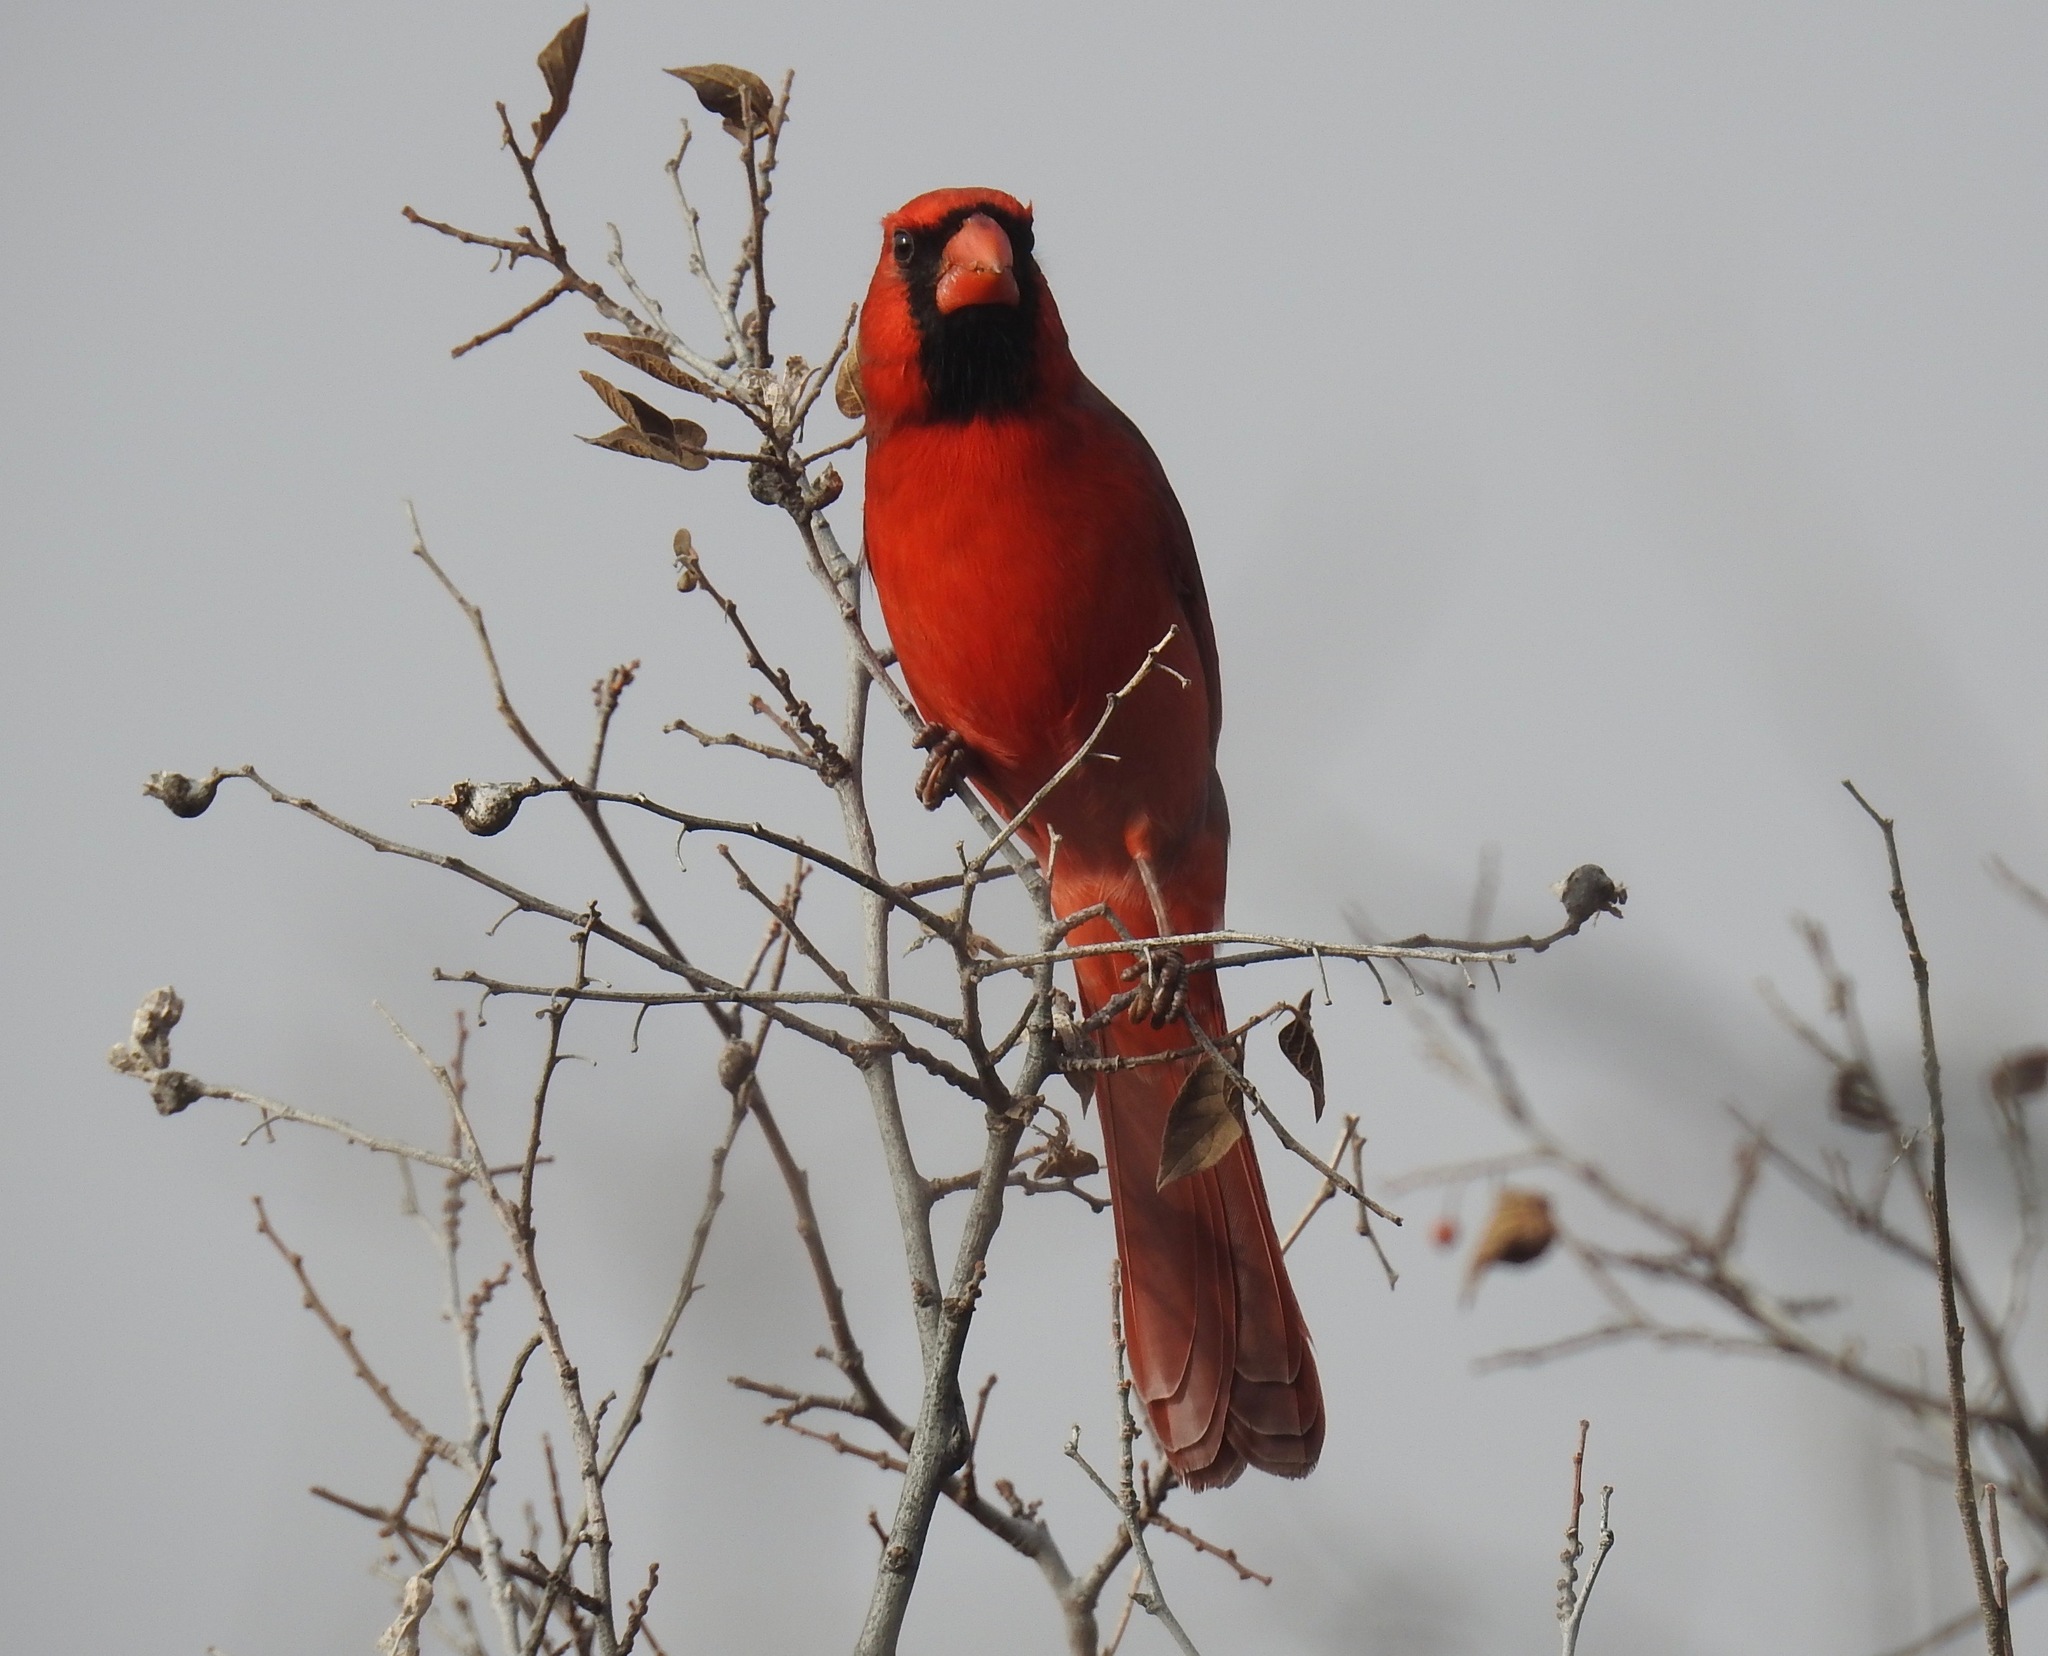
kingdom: Animalia
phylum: Chordata
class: Aves
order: Passeriformes
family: Cardinalidae
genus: Cardinalis
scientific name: Cardinalis cardinalis
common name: Northern cardinal
